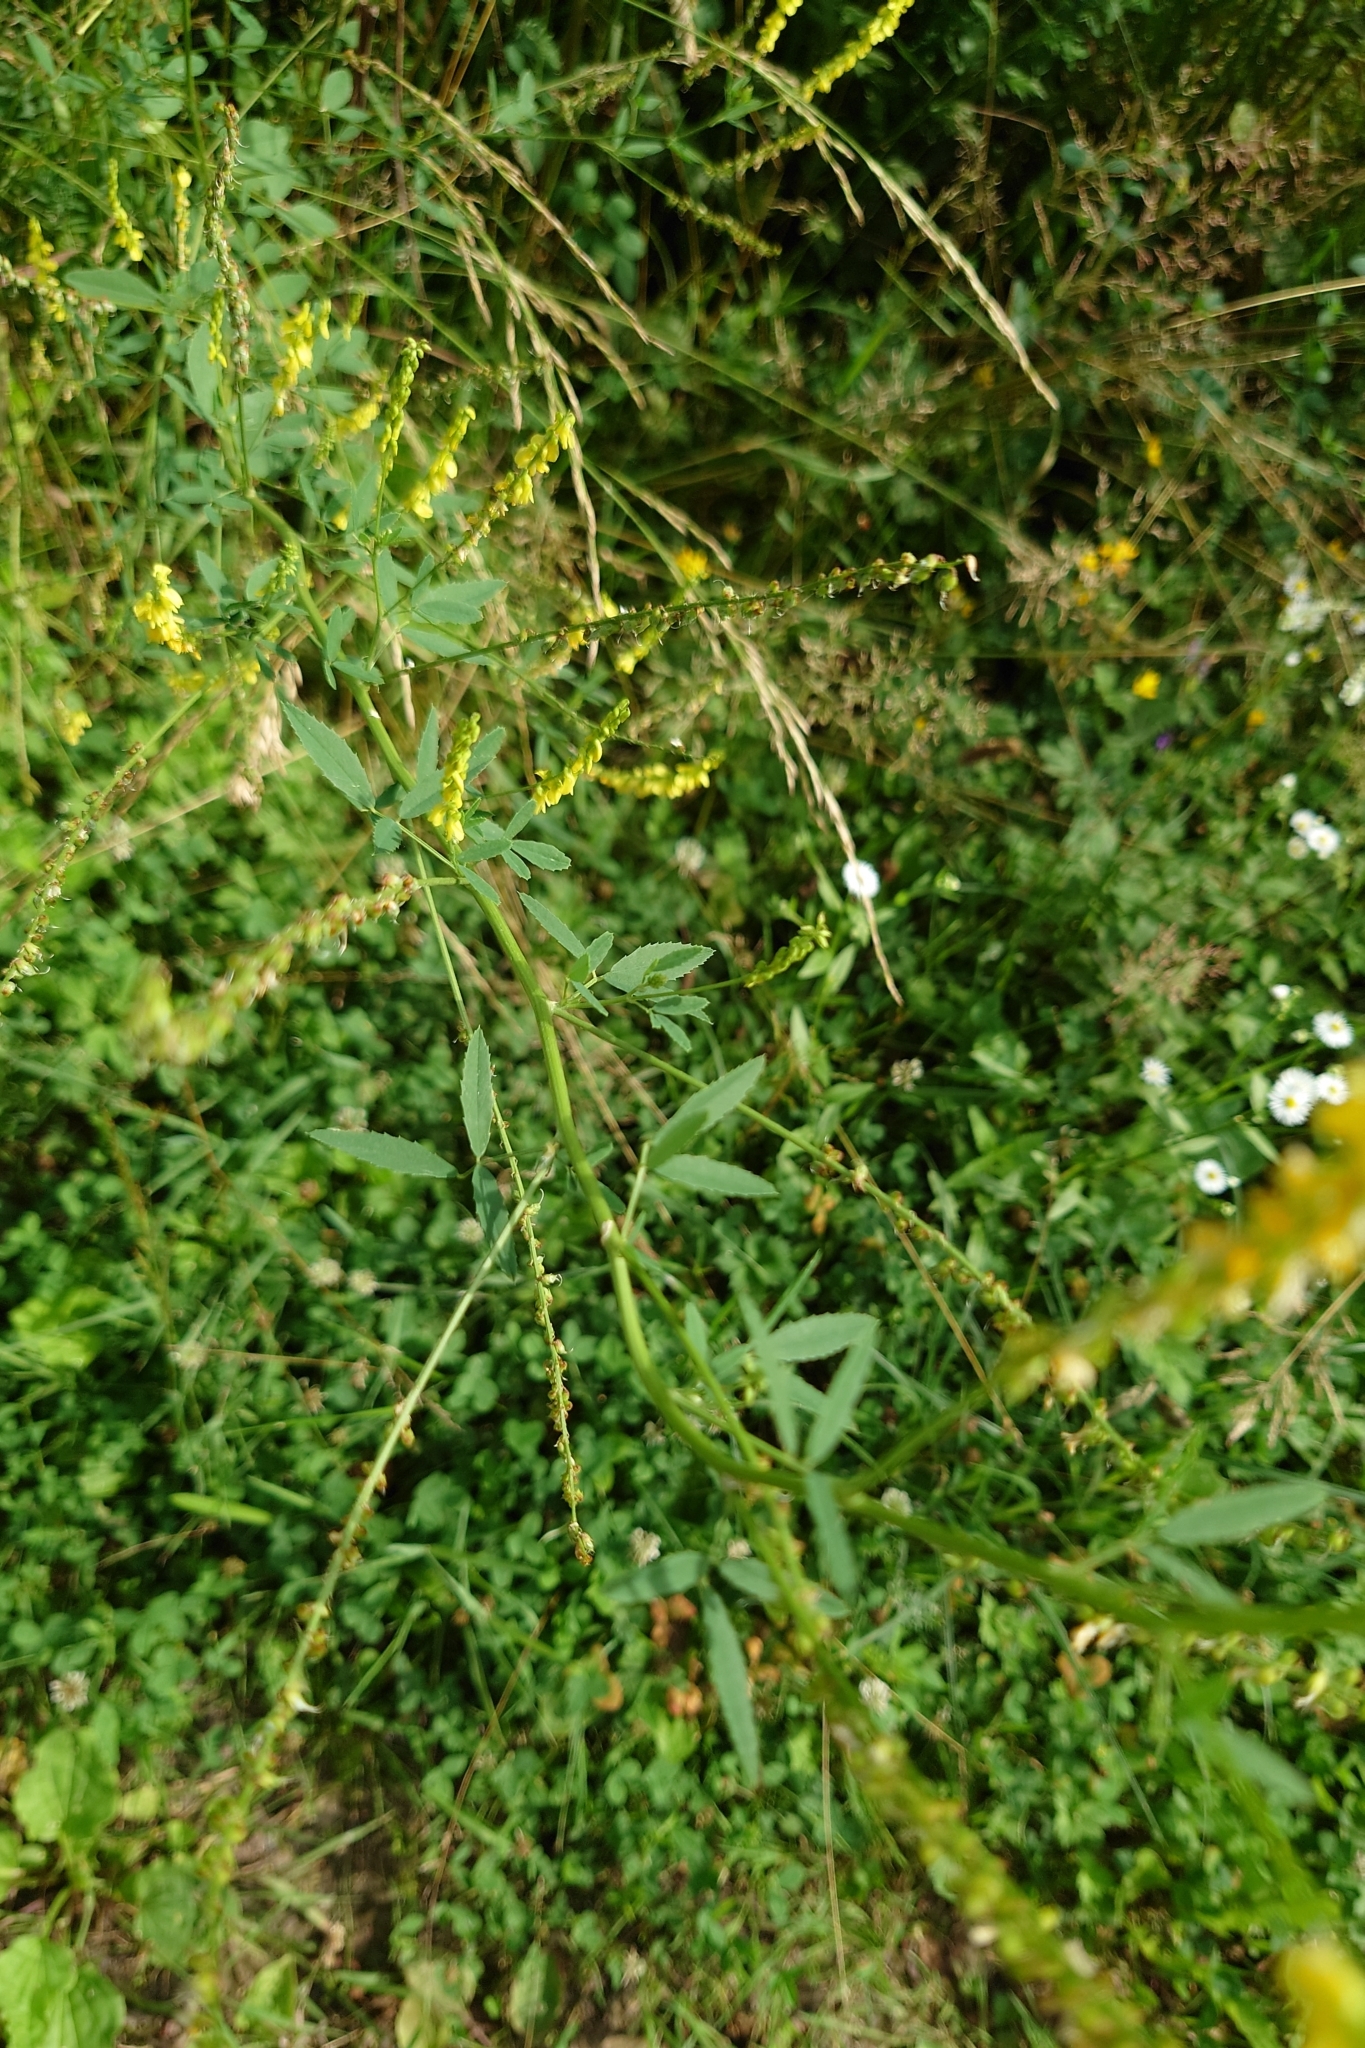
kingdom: Plantae
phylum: Tracheophyta
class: Magnoliopsida
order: Fabales
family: Fabaceae
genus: Melilotus
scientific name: Melilotus officinalis
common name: Sweetclover
